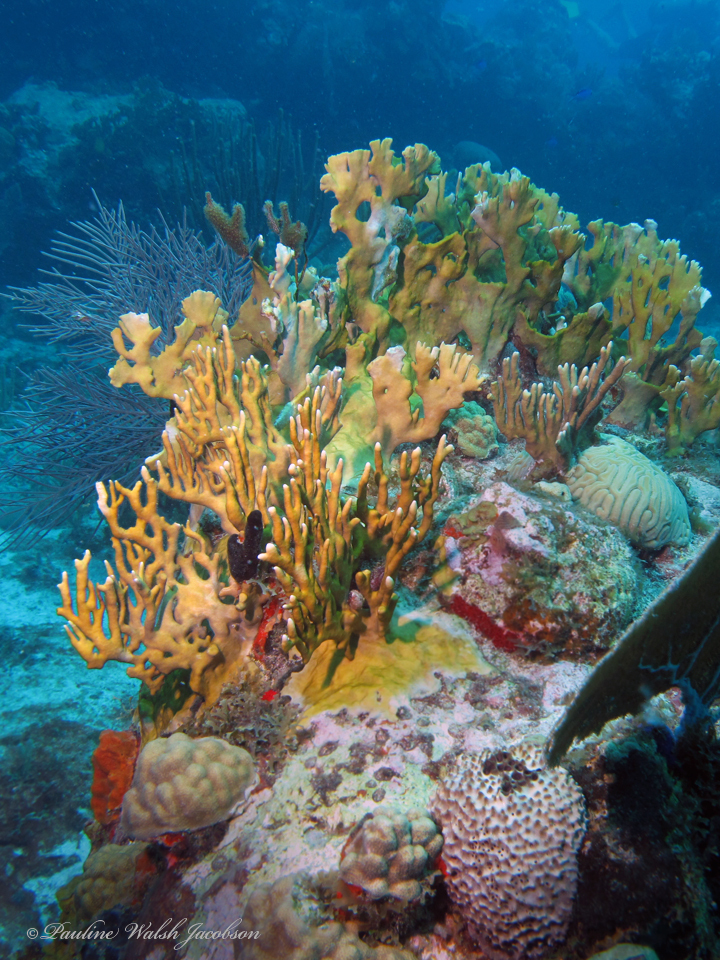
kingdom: Animalia
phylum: Porifera
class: Demospongiae
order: Dictyoceratida
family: Irciniidae
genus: Ircinia
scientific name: Ircinia felix
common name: Stinker sponge
